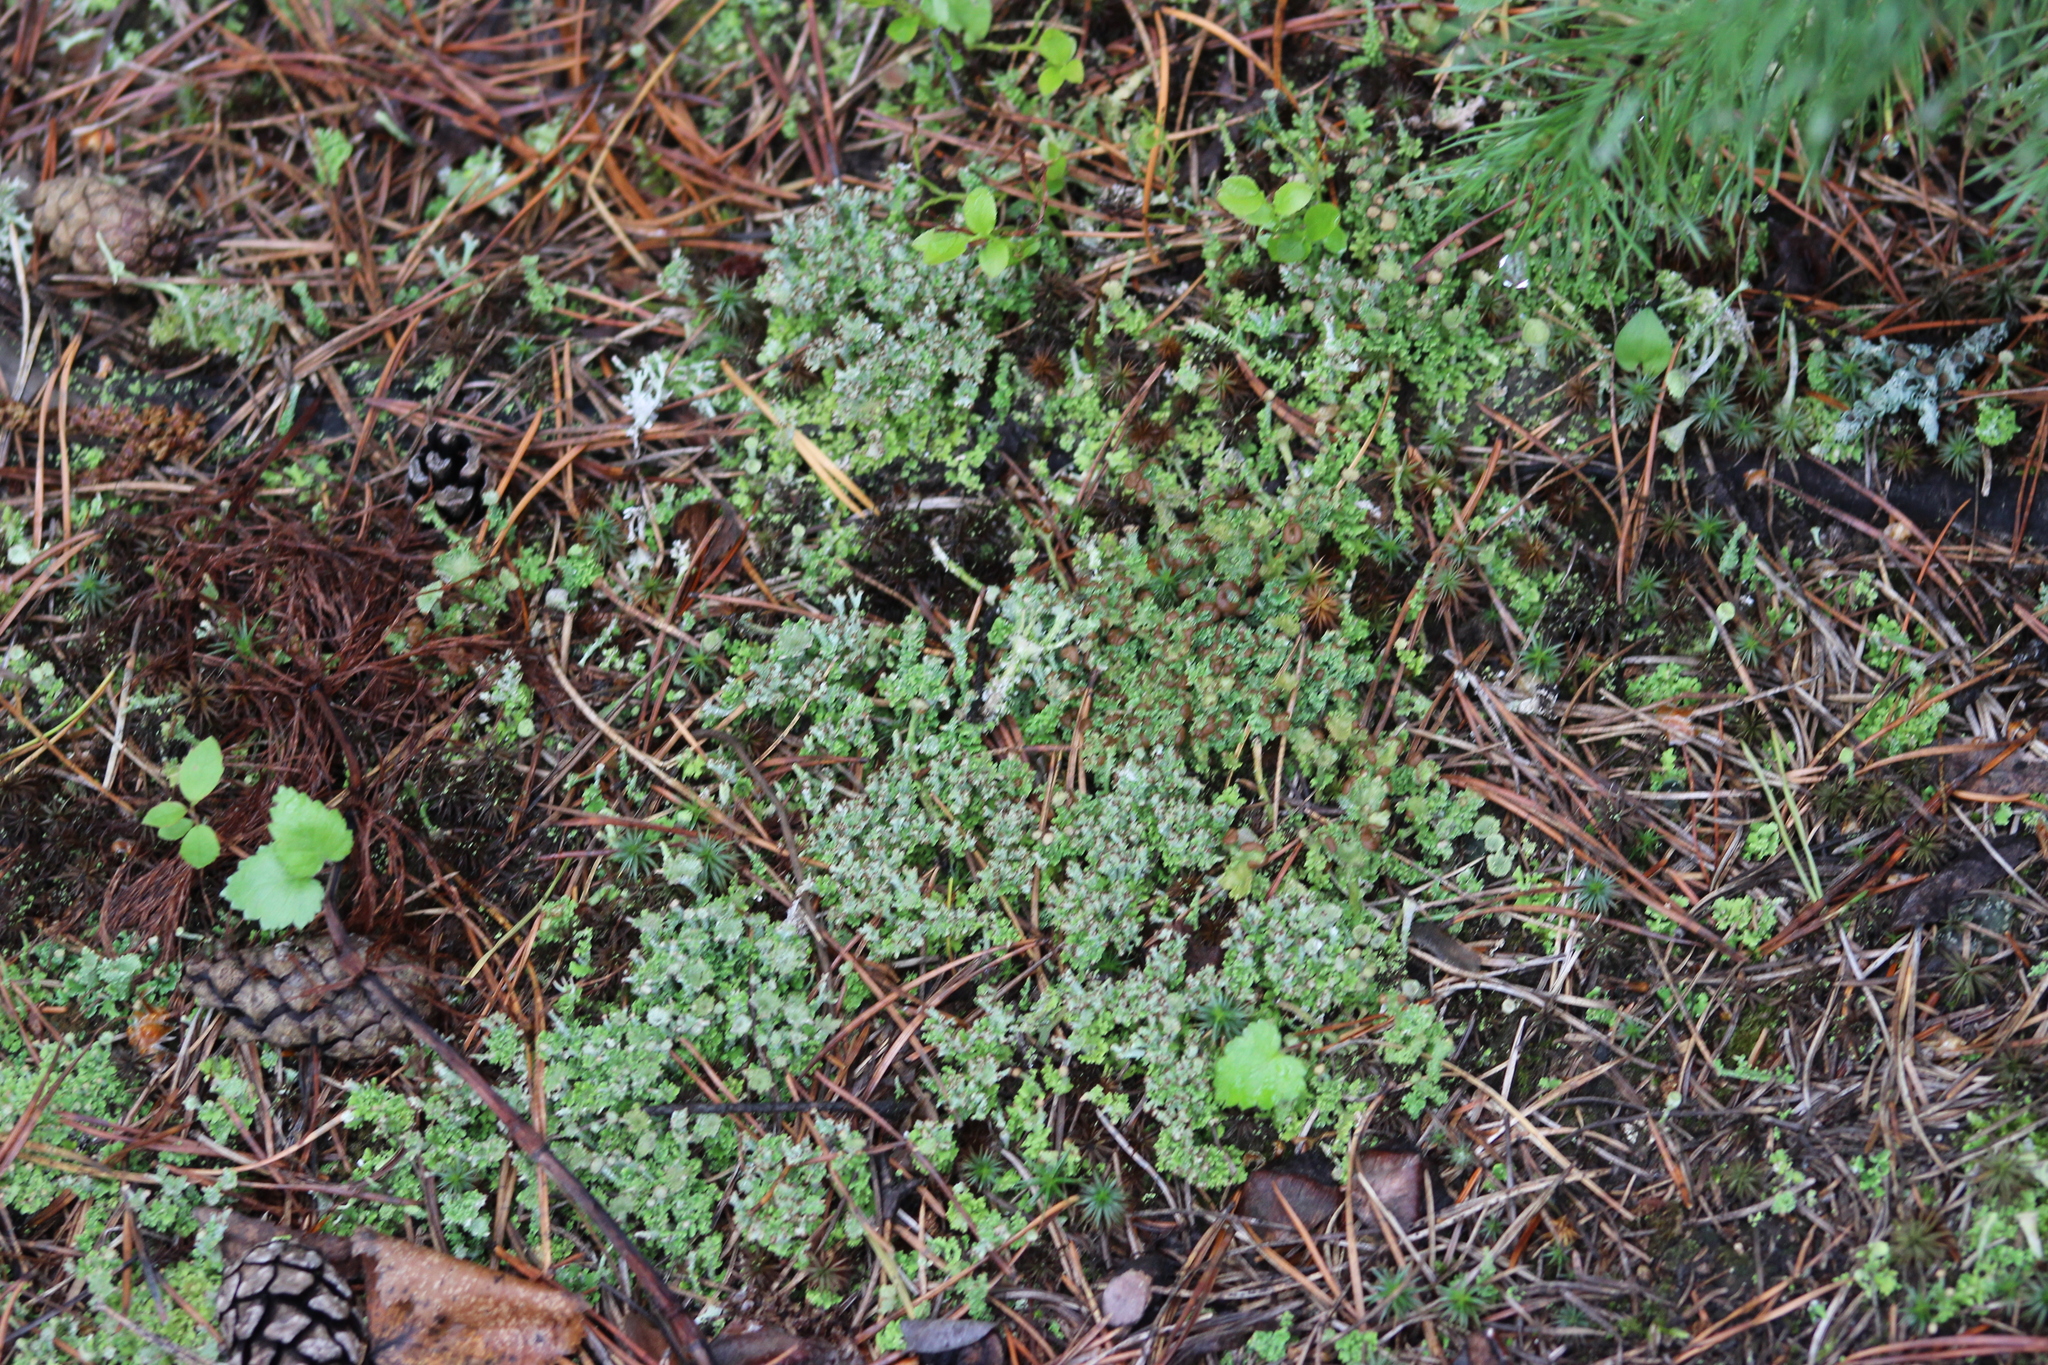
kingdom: Fungi
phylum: Ascomycota
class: Lecanoromycetes
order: Lecanorales
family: Cladoniaceae
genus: Cladonia
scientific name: Cladonia crispata
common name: Organ-pipe lichen
